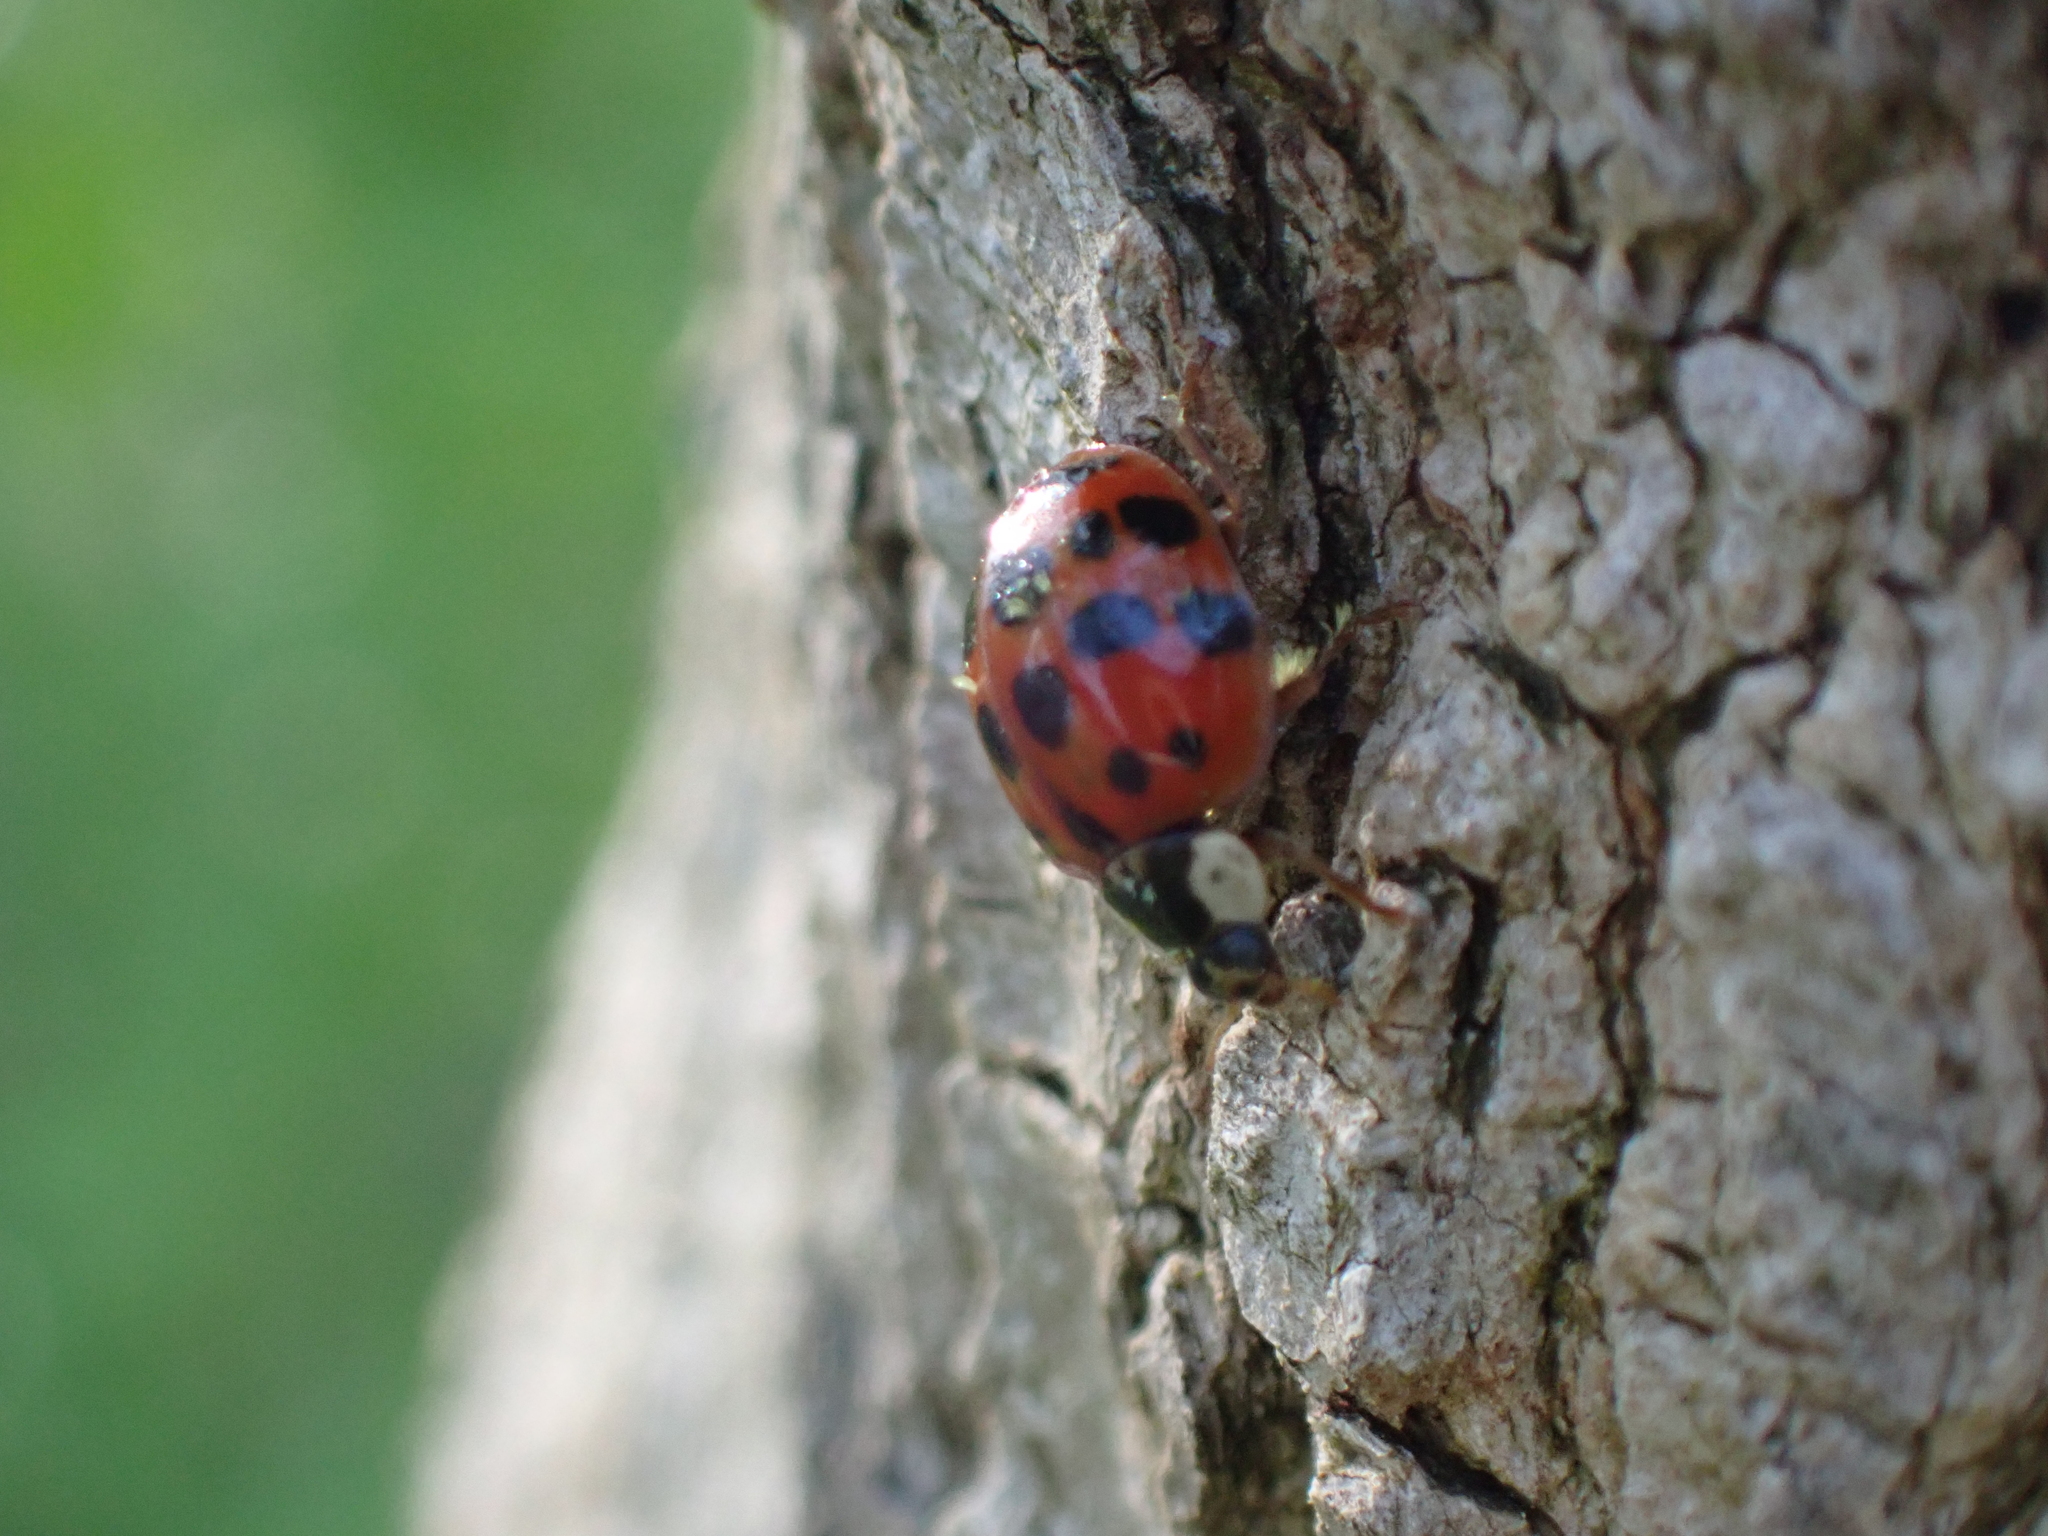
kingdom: Animalia
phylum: Arthropoda
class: Insecta
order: Coleoptera
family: Coccinellidae
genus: Harmonia
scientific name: Harmonia axyridis
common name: Harlequin ladybird
